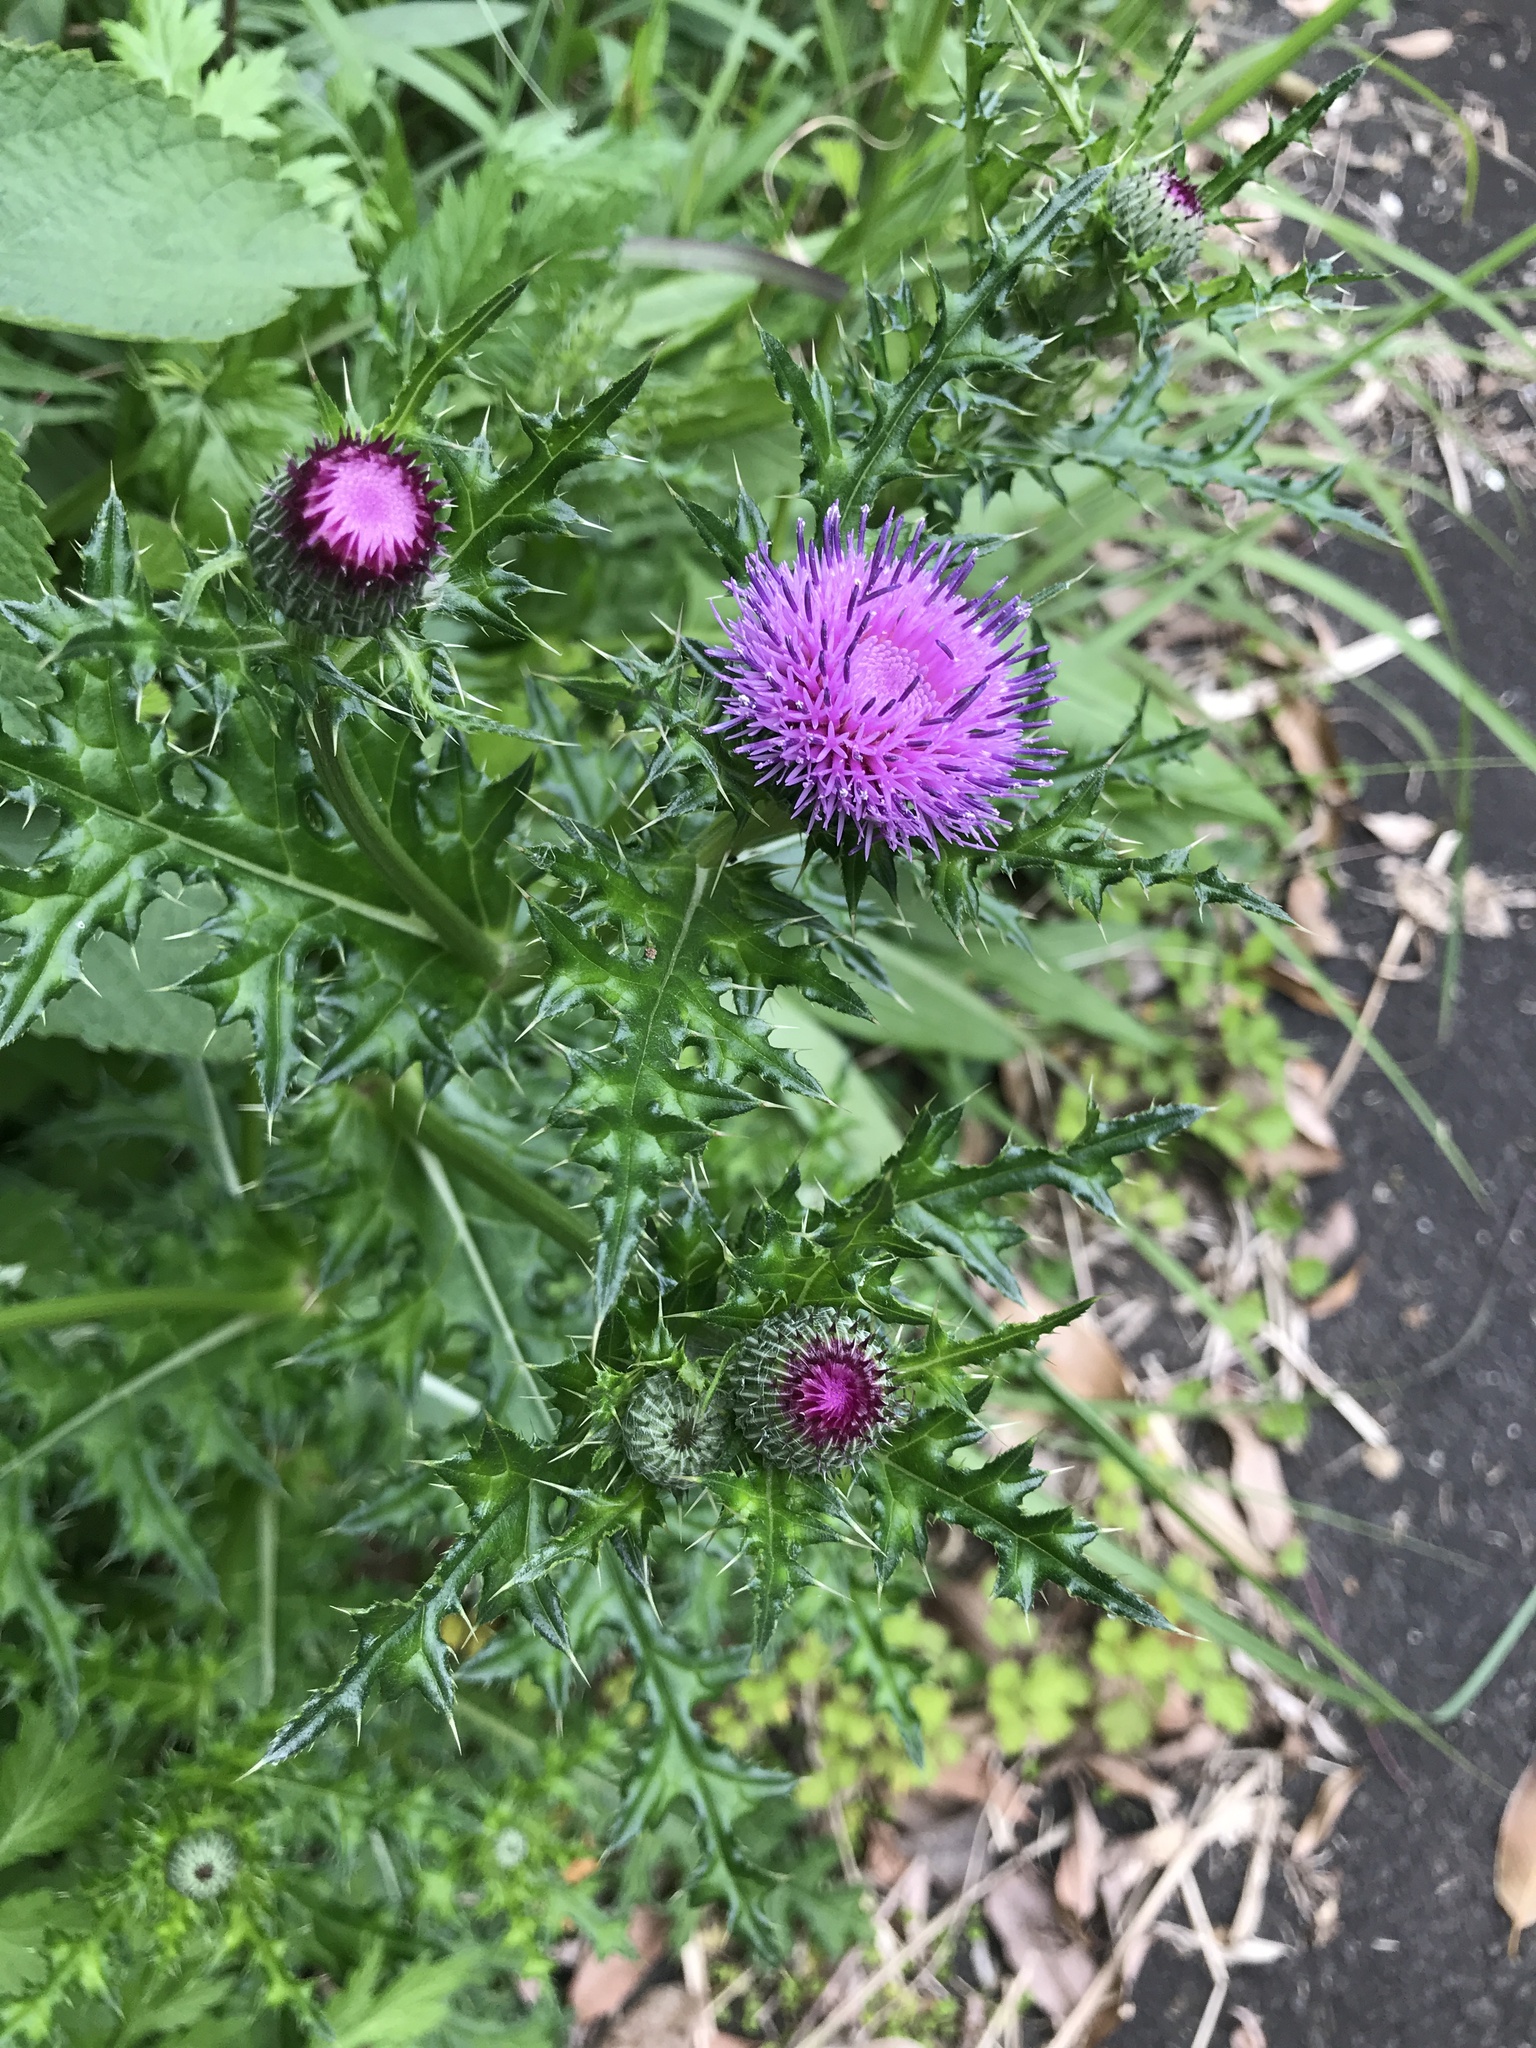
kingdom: Plantae
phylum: Tracheophyta
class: Magnoliopsida
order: Asterales
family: Asteraceae
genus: Cirsium
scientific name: Cirsium japonicum
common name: Japanese thistle
